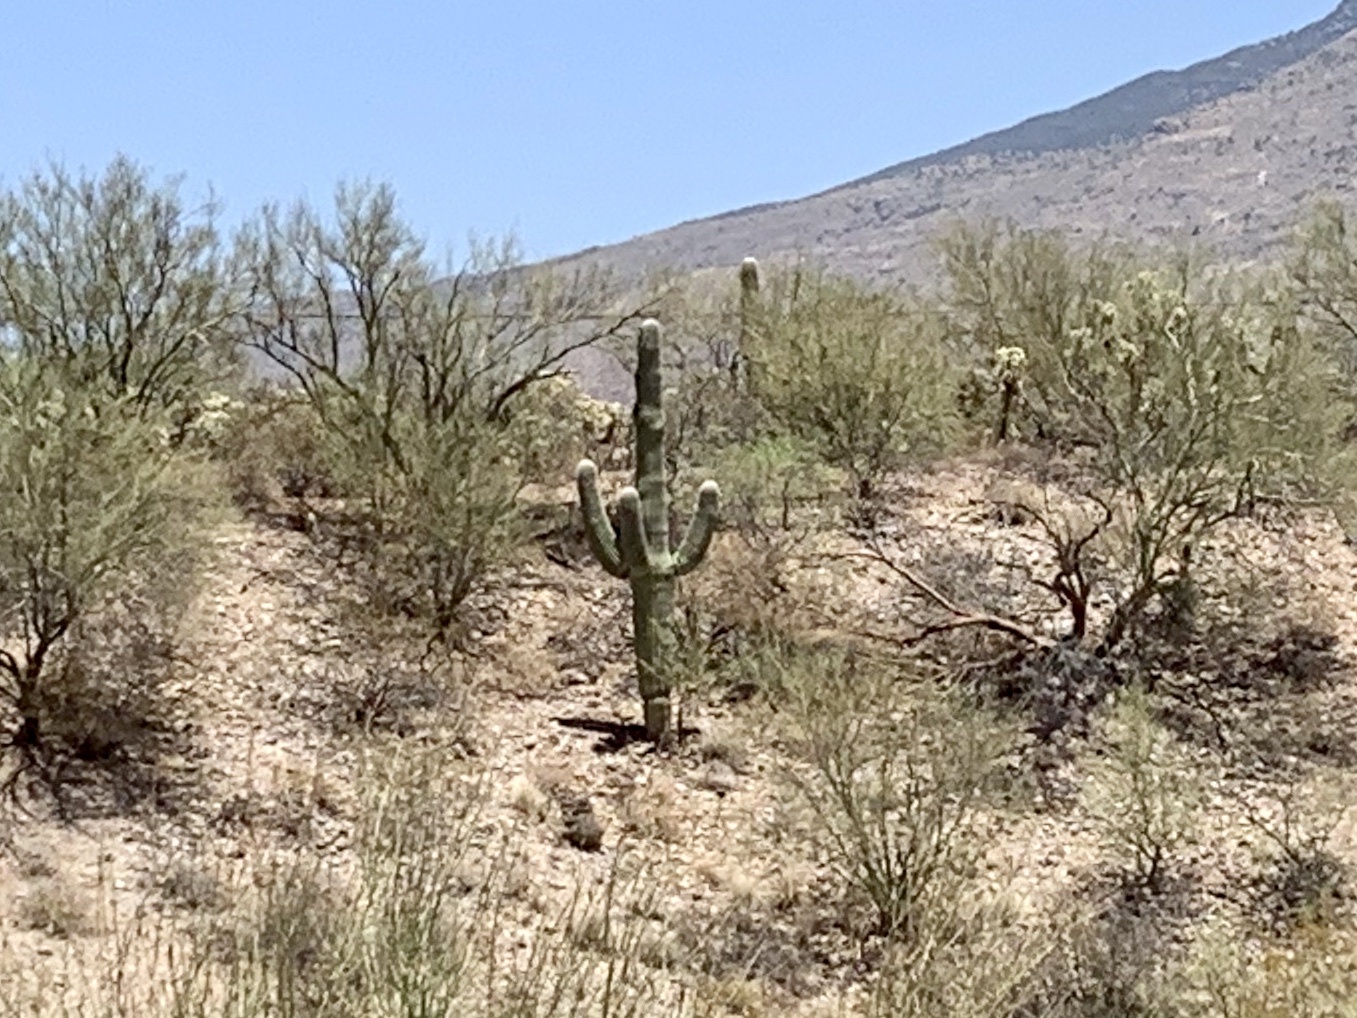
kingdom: Plantae
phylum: Tracheophyta
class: Magnoliopsida
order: Caryophyllales
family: Cactaceae
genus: Carnegiea
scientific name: Carnegiea gigantea
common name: Saguaro
